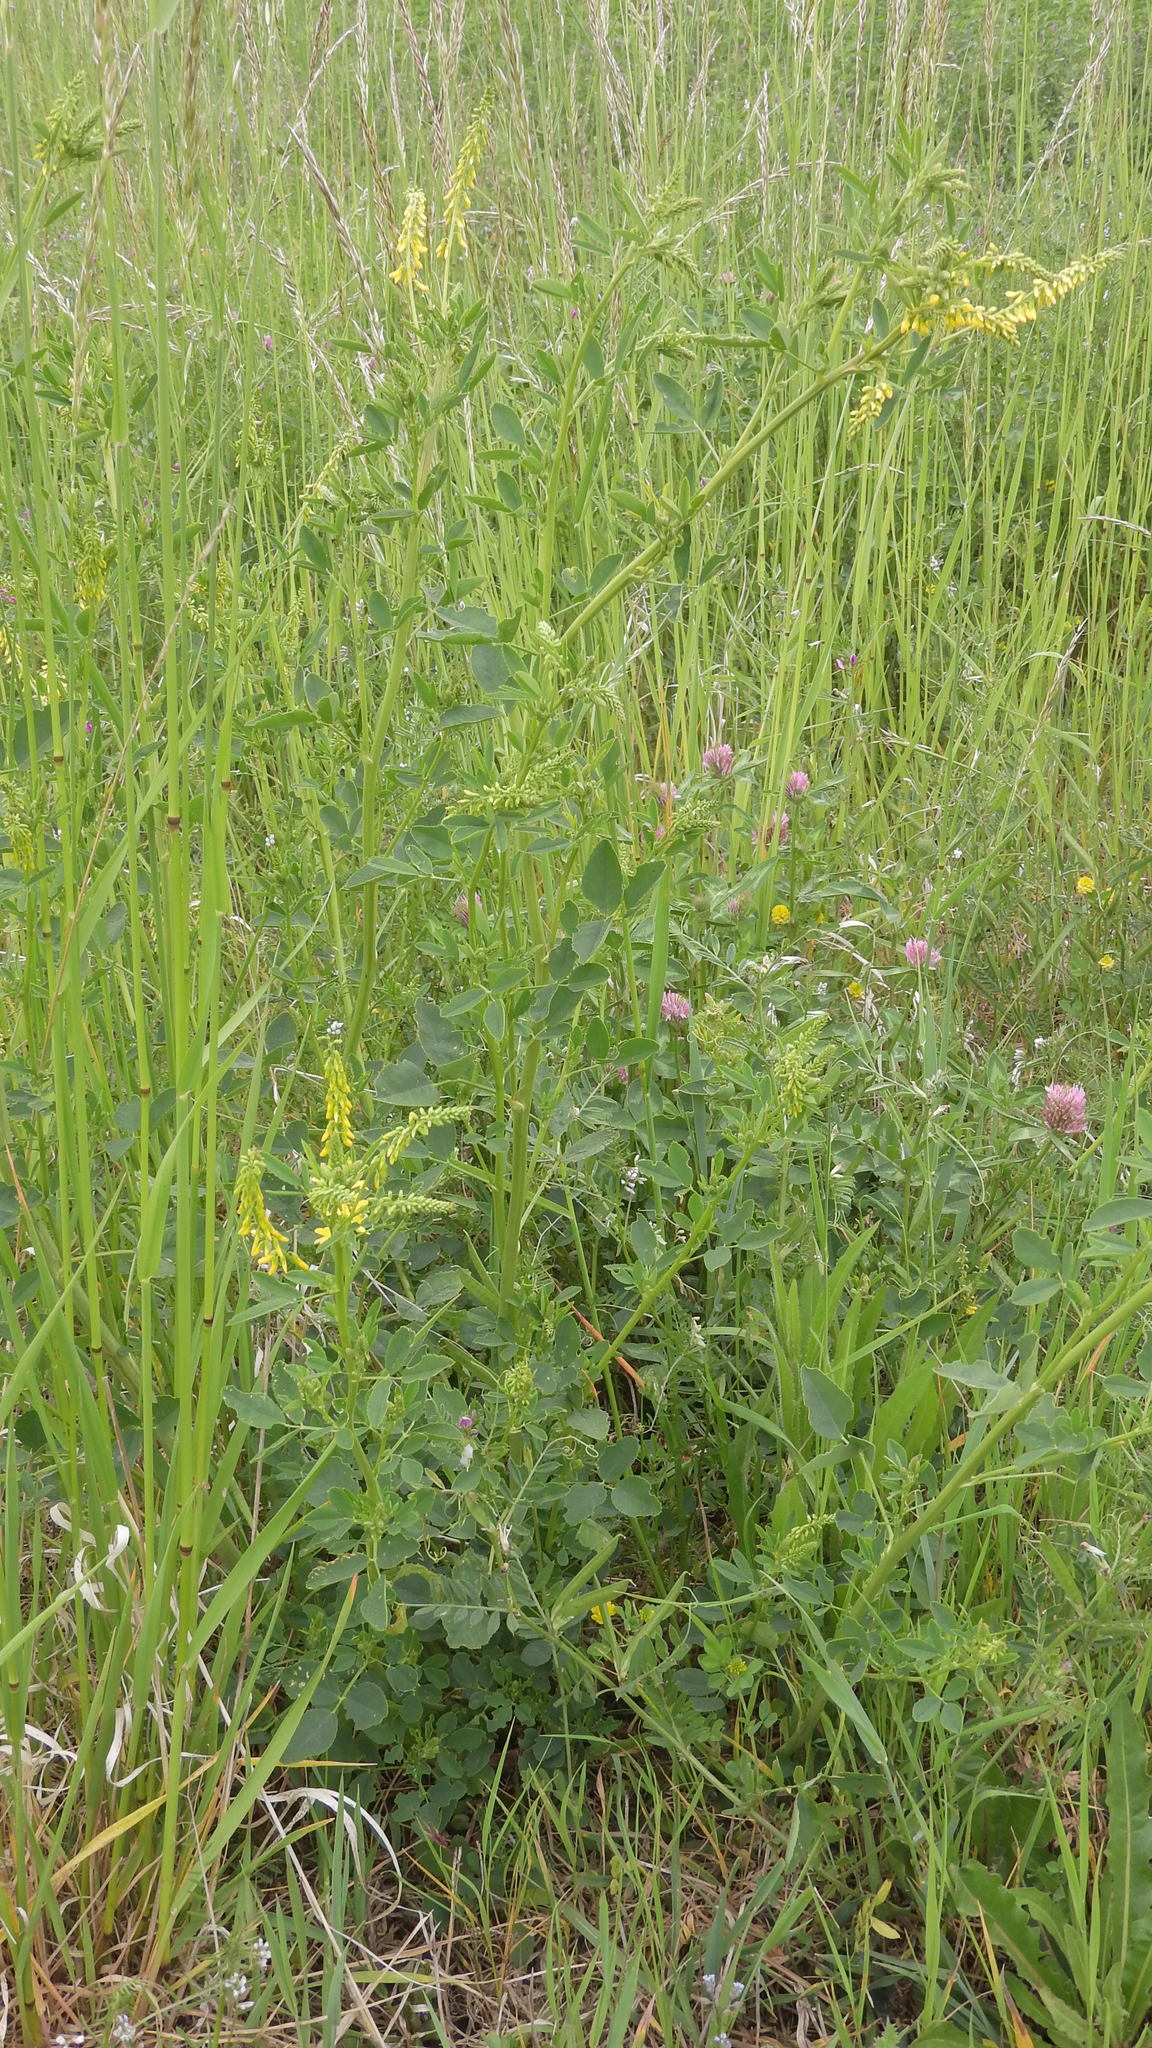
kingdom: Plantae
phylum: Tracheophyta
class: Magnoliopsida
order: Fabales
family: Fabaceae
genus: Melilotus
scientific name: Melilotus officinalis
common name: Sweetclover
